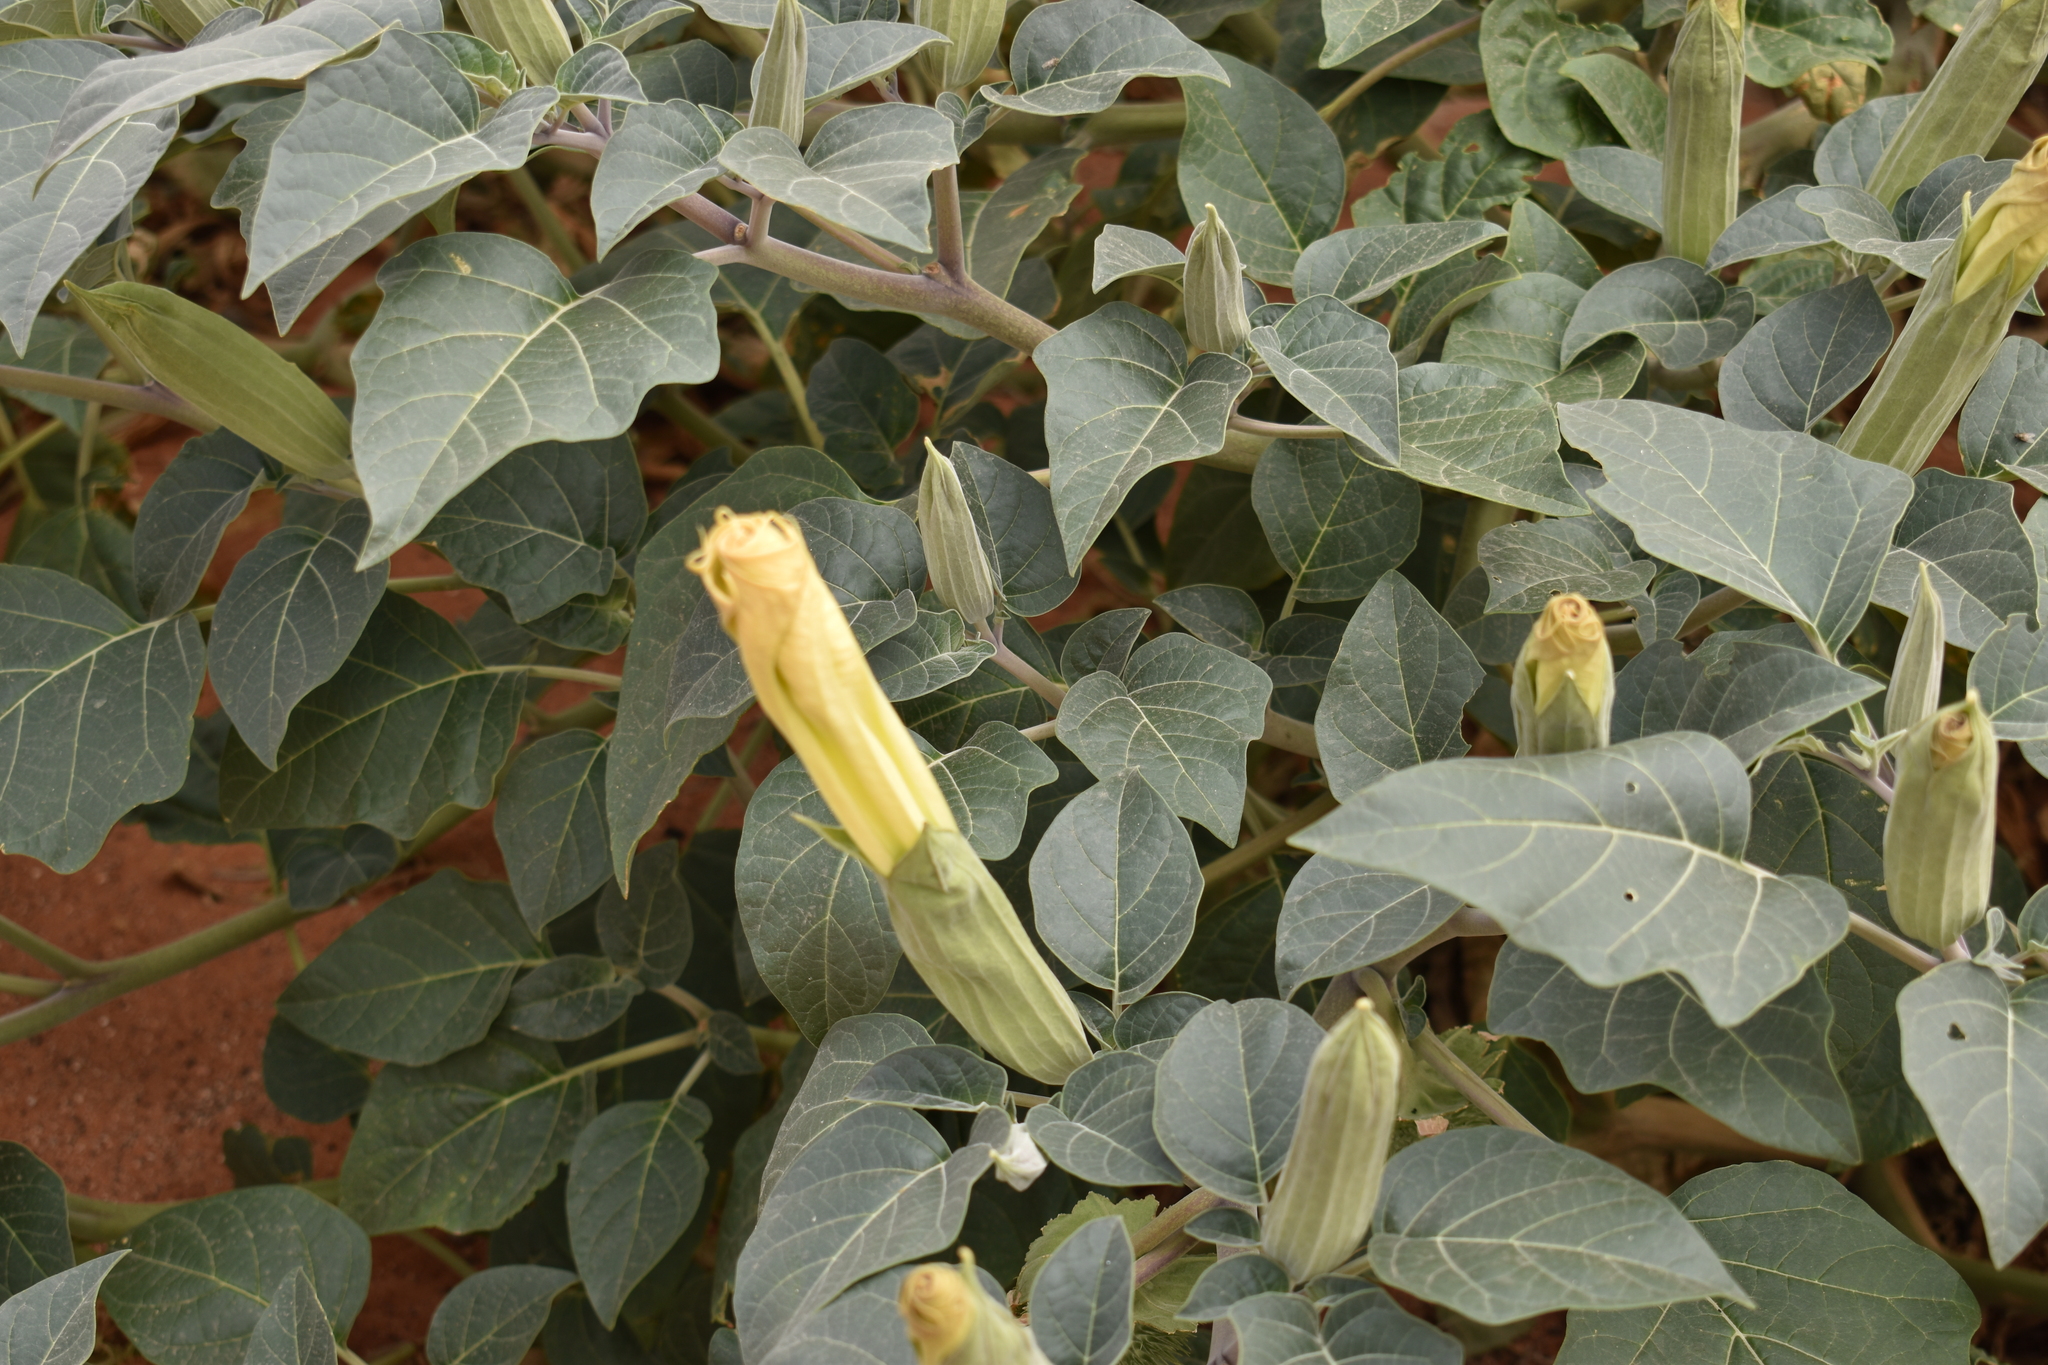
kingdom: Plantae
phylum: Tracheophyta
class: Magnoliopsida
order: Solanales
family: Solanaceae
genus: Datura
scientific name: Datura wrightii
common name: Sacred thorn-apple
